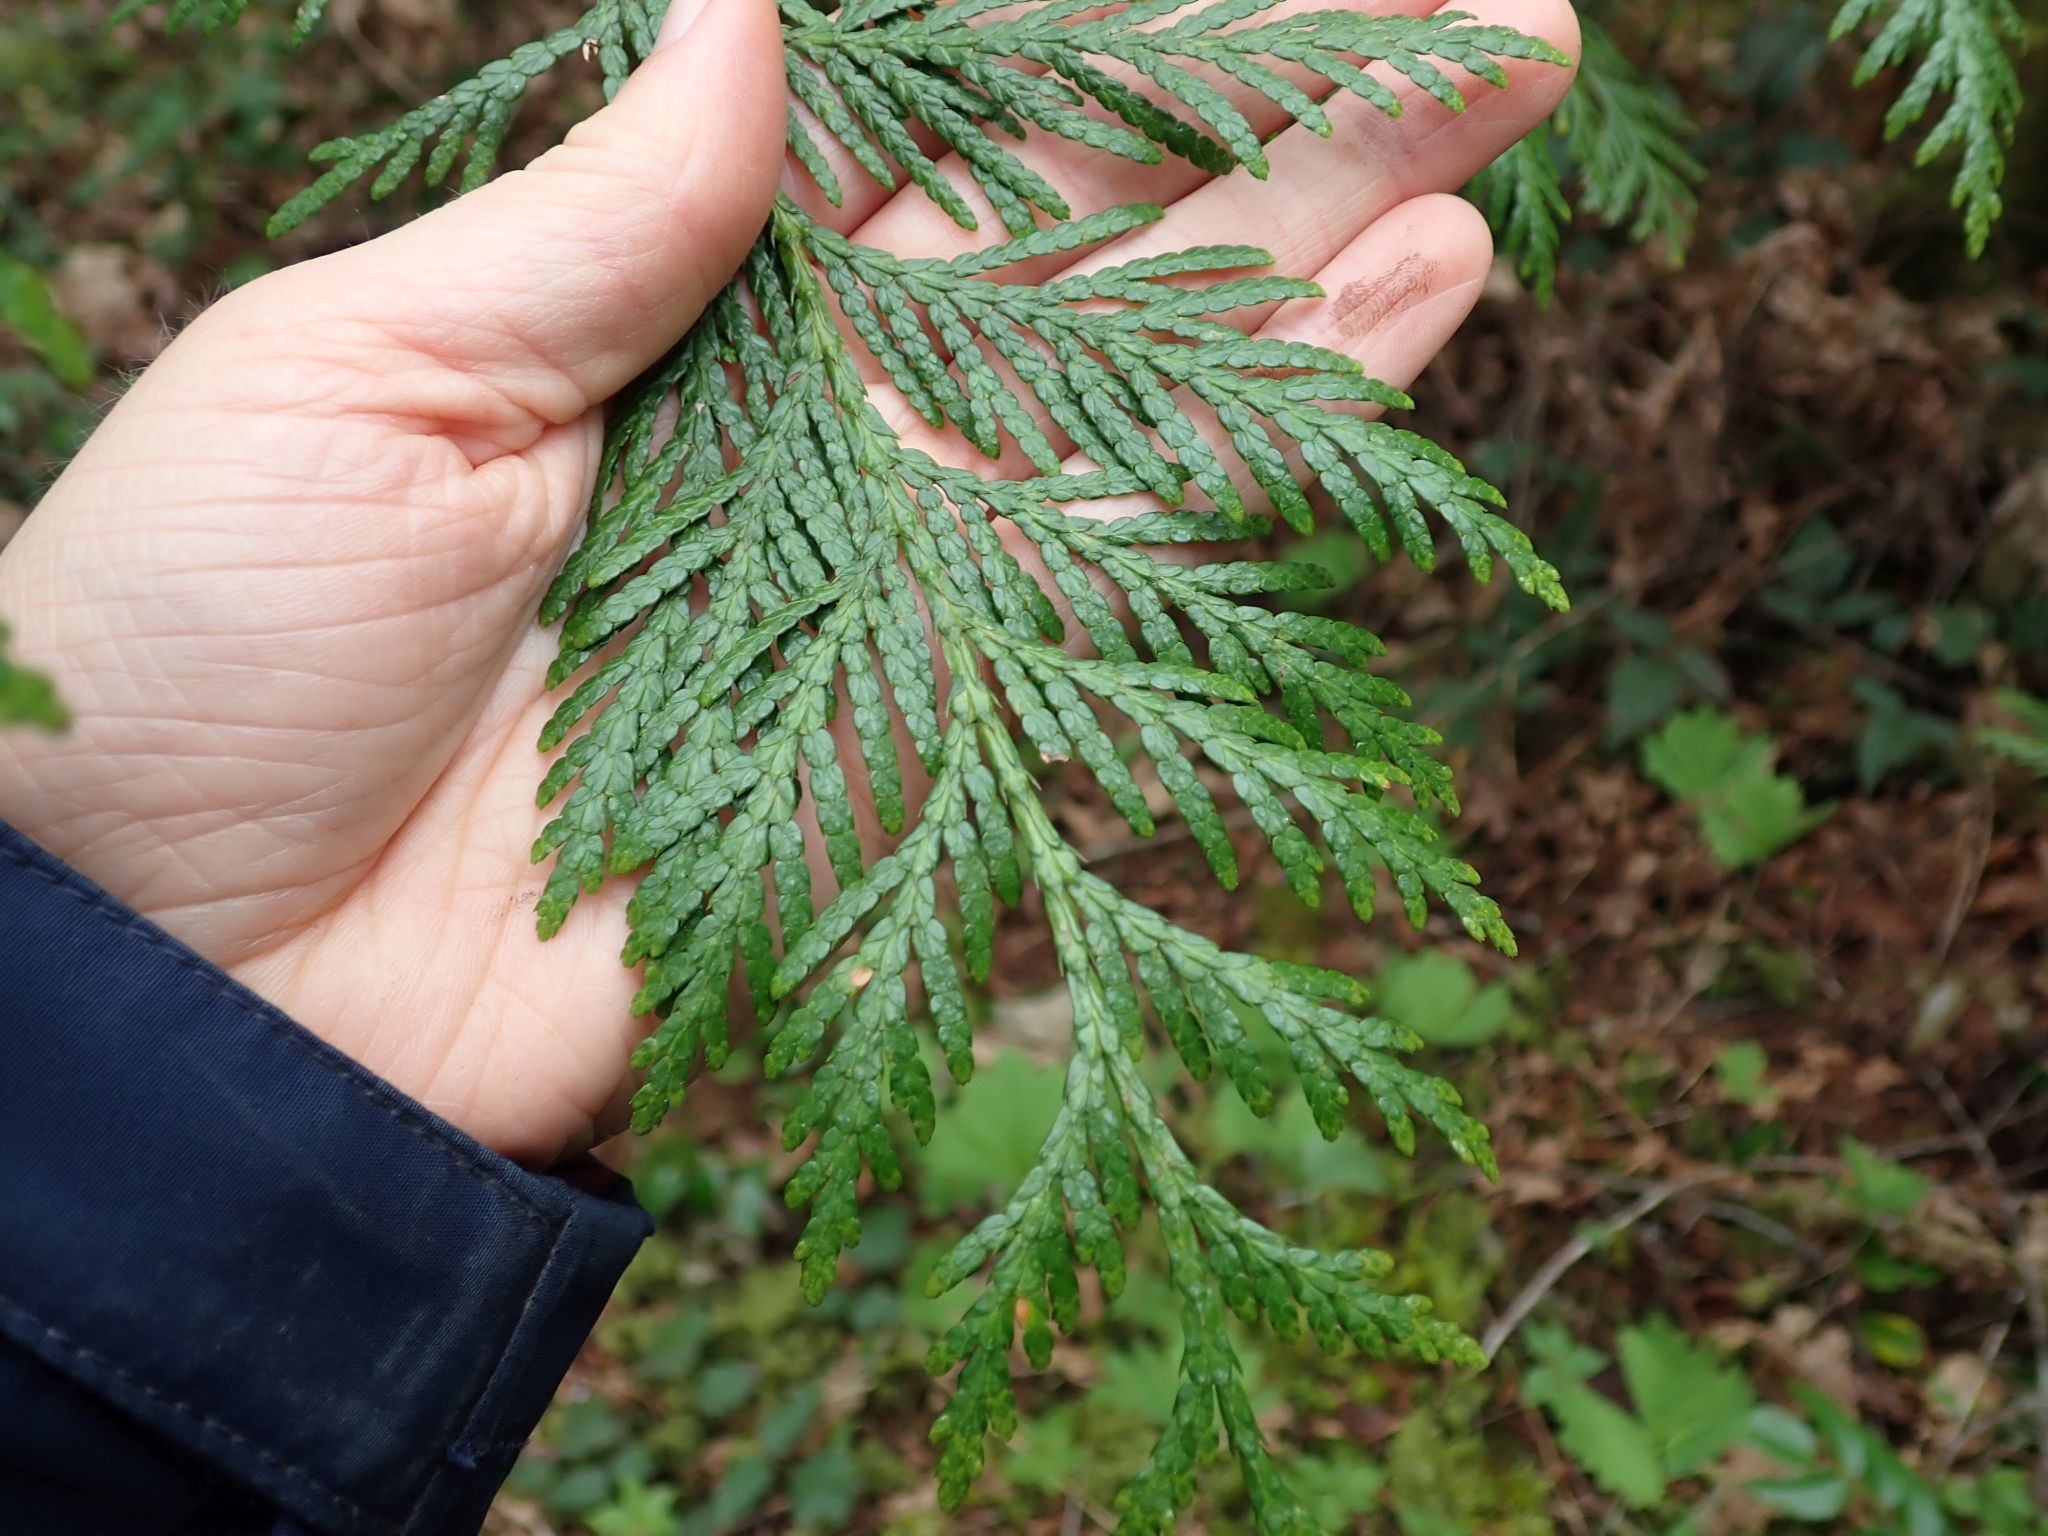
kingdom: Plantae
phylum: Tracheophyta
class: Pinopsida
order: Pinales
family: Cupressaceae
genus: Thuja
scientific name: Thuja plicata
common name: Western red-cedar
